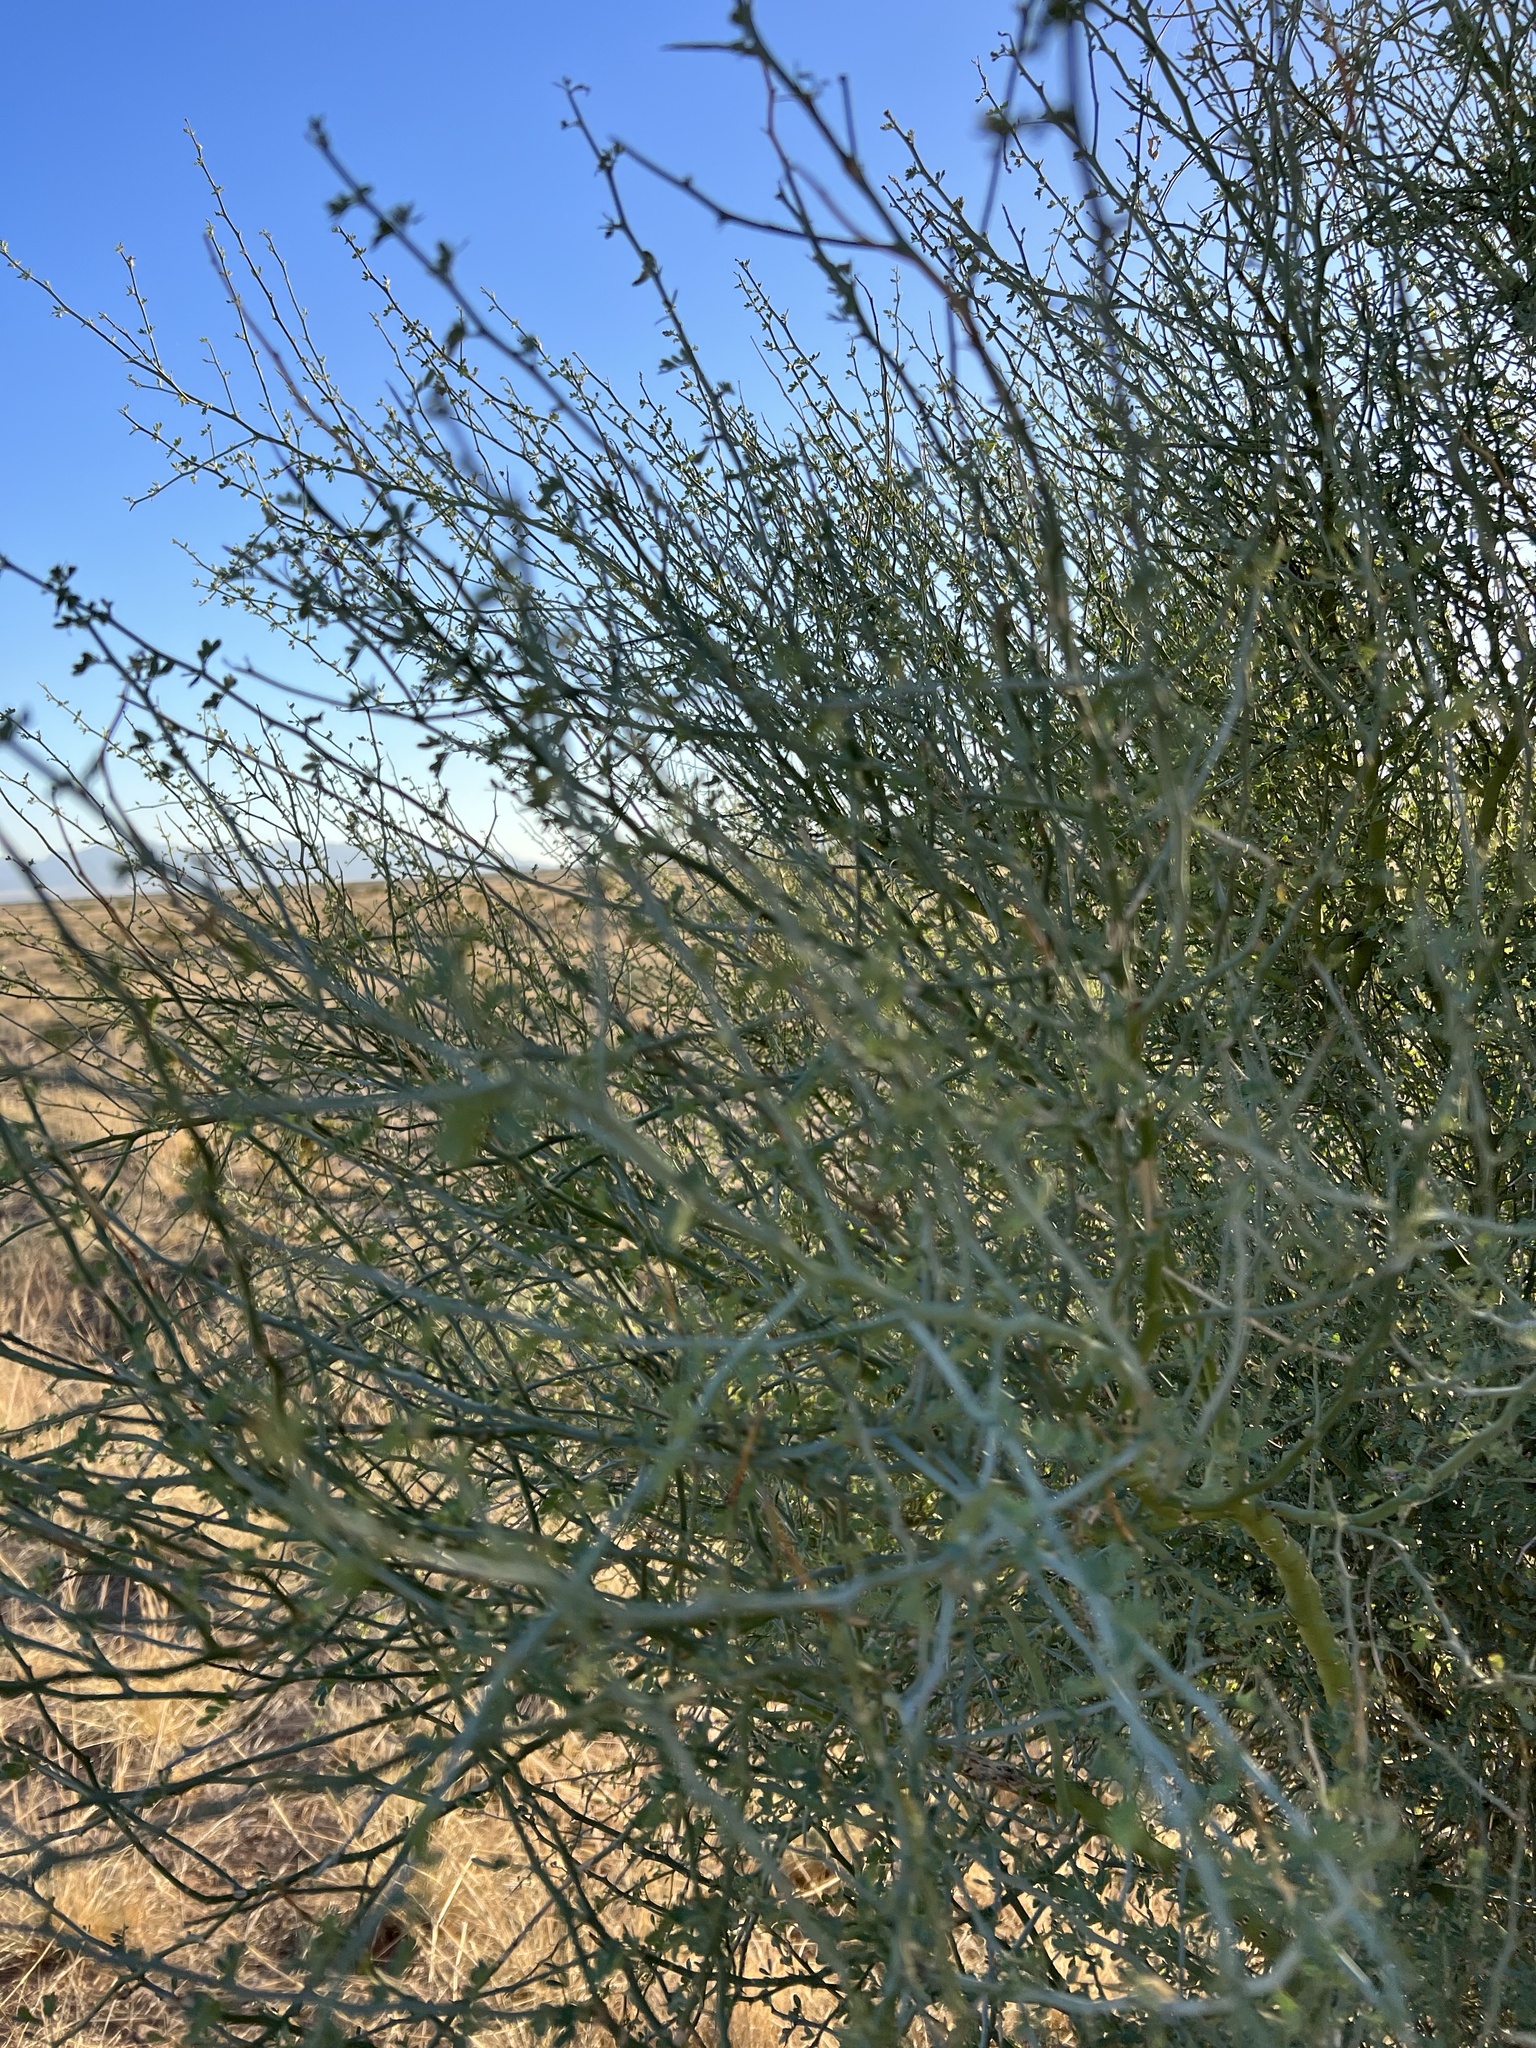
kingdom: Plantae
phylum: Tracheophyta
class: Magnoliopsida
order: Fabales
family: Fabaceae
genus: Parkinsonia
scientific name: Parkinsonia florida
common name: Blue paloverde
